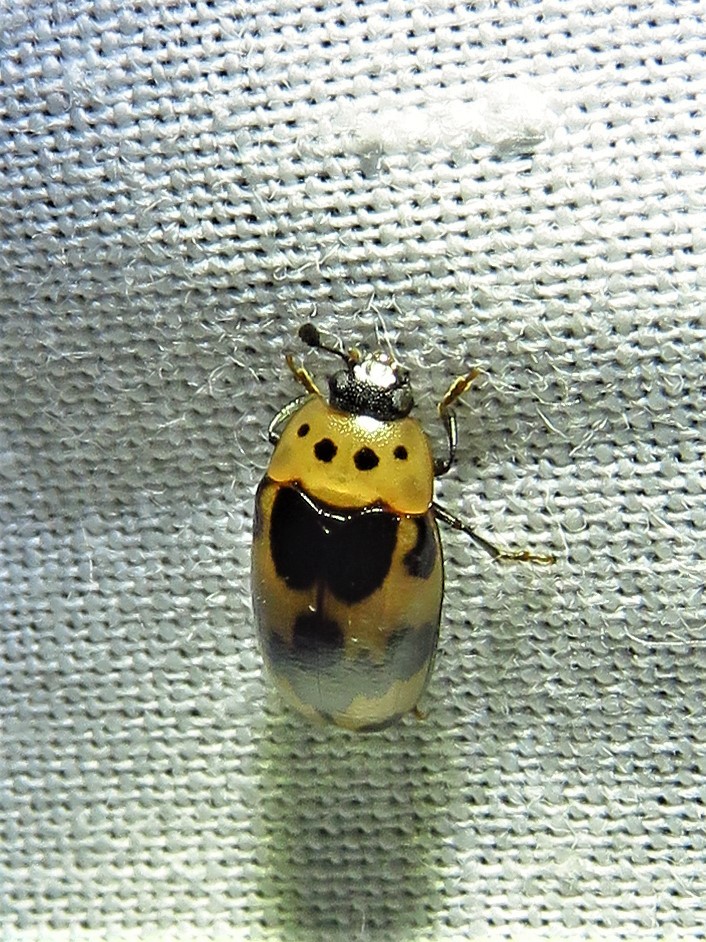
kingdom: Animalia
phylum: Arthropoda
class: Insecta
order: Coleoptera
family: Erotylidae
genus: Ischyrus
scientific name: Ischyrus quadripunctatus
